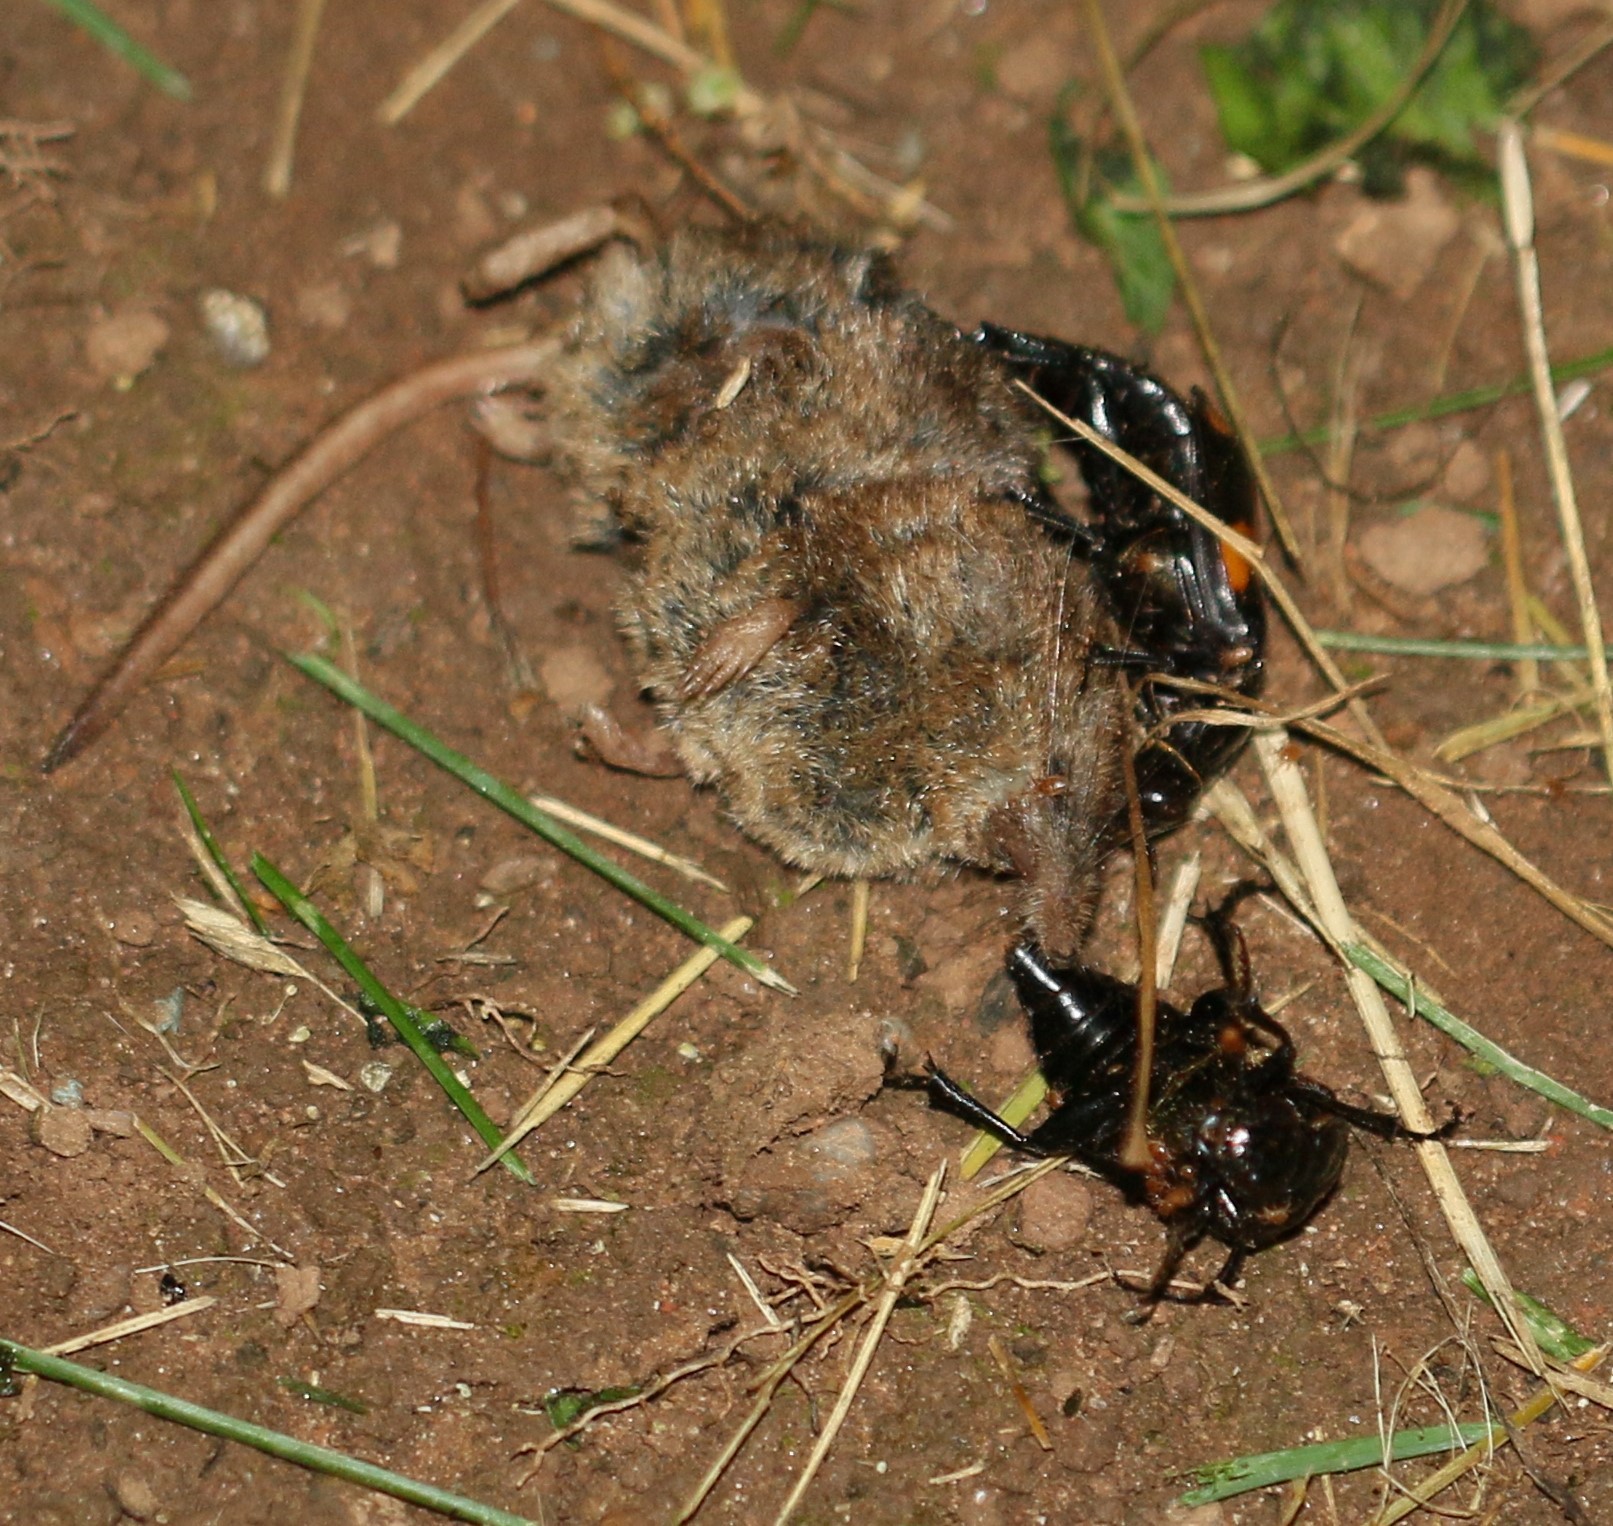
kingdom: Animalia
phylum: Arthropoda
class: Insecta
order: Coleoptera
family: Staphylinidae
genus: Nicrophorus
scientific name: Nicrophorus orbicollis
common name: Roundneck sexton beetle
